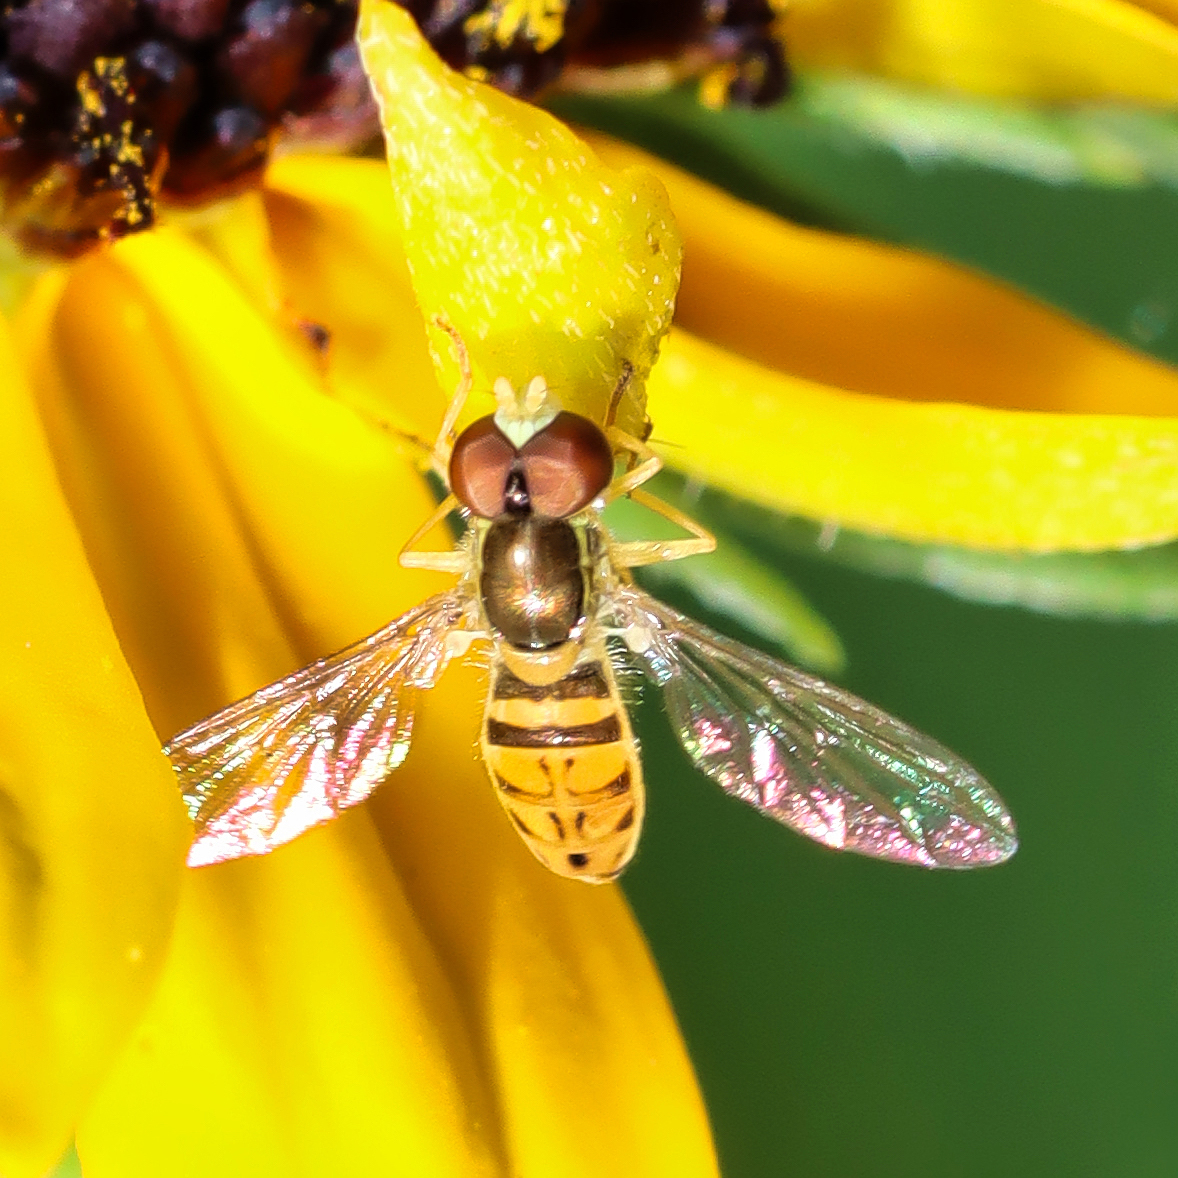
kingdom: Animalia
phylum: Arthropoda
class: Insecta
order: Diptera
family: Syrphidae
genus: Toxomerus
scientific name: Toxomerus marginatus
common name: Syrphid fly
